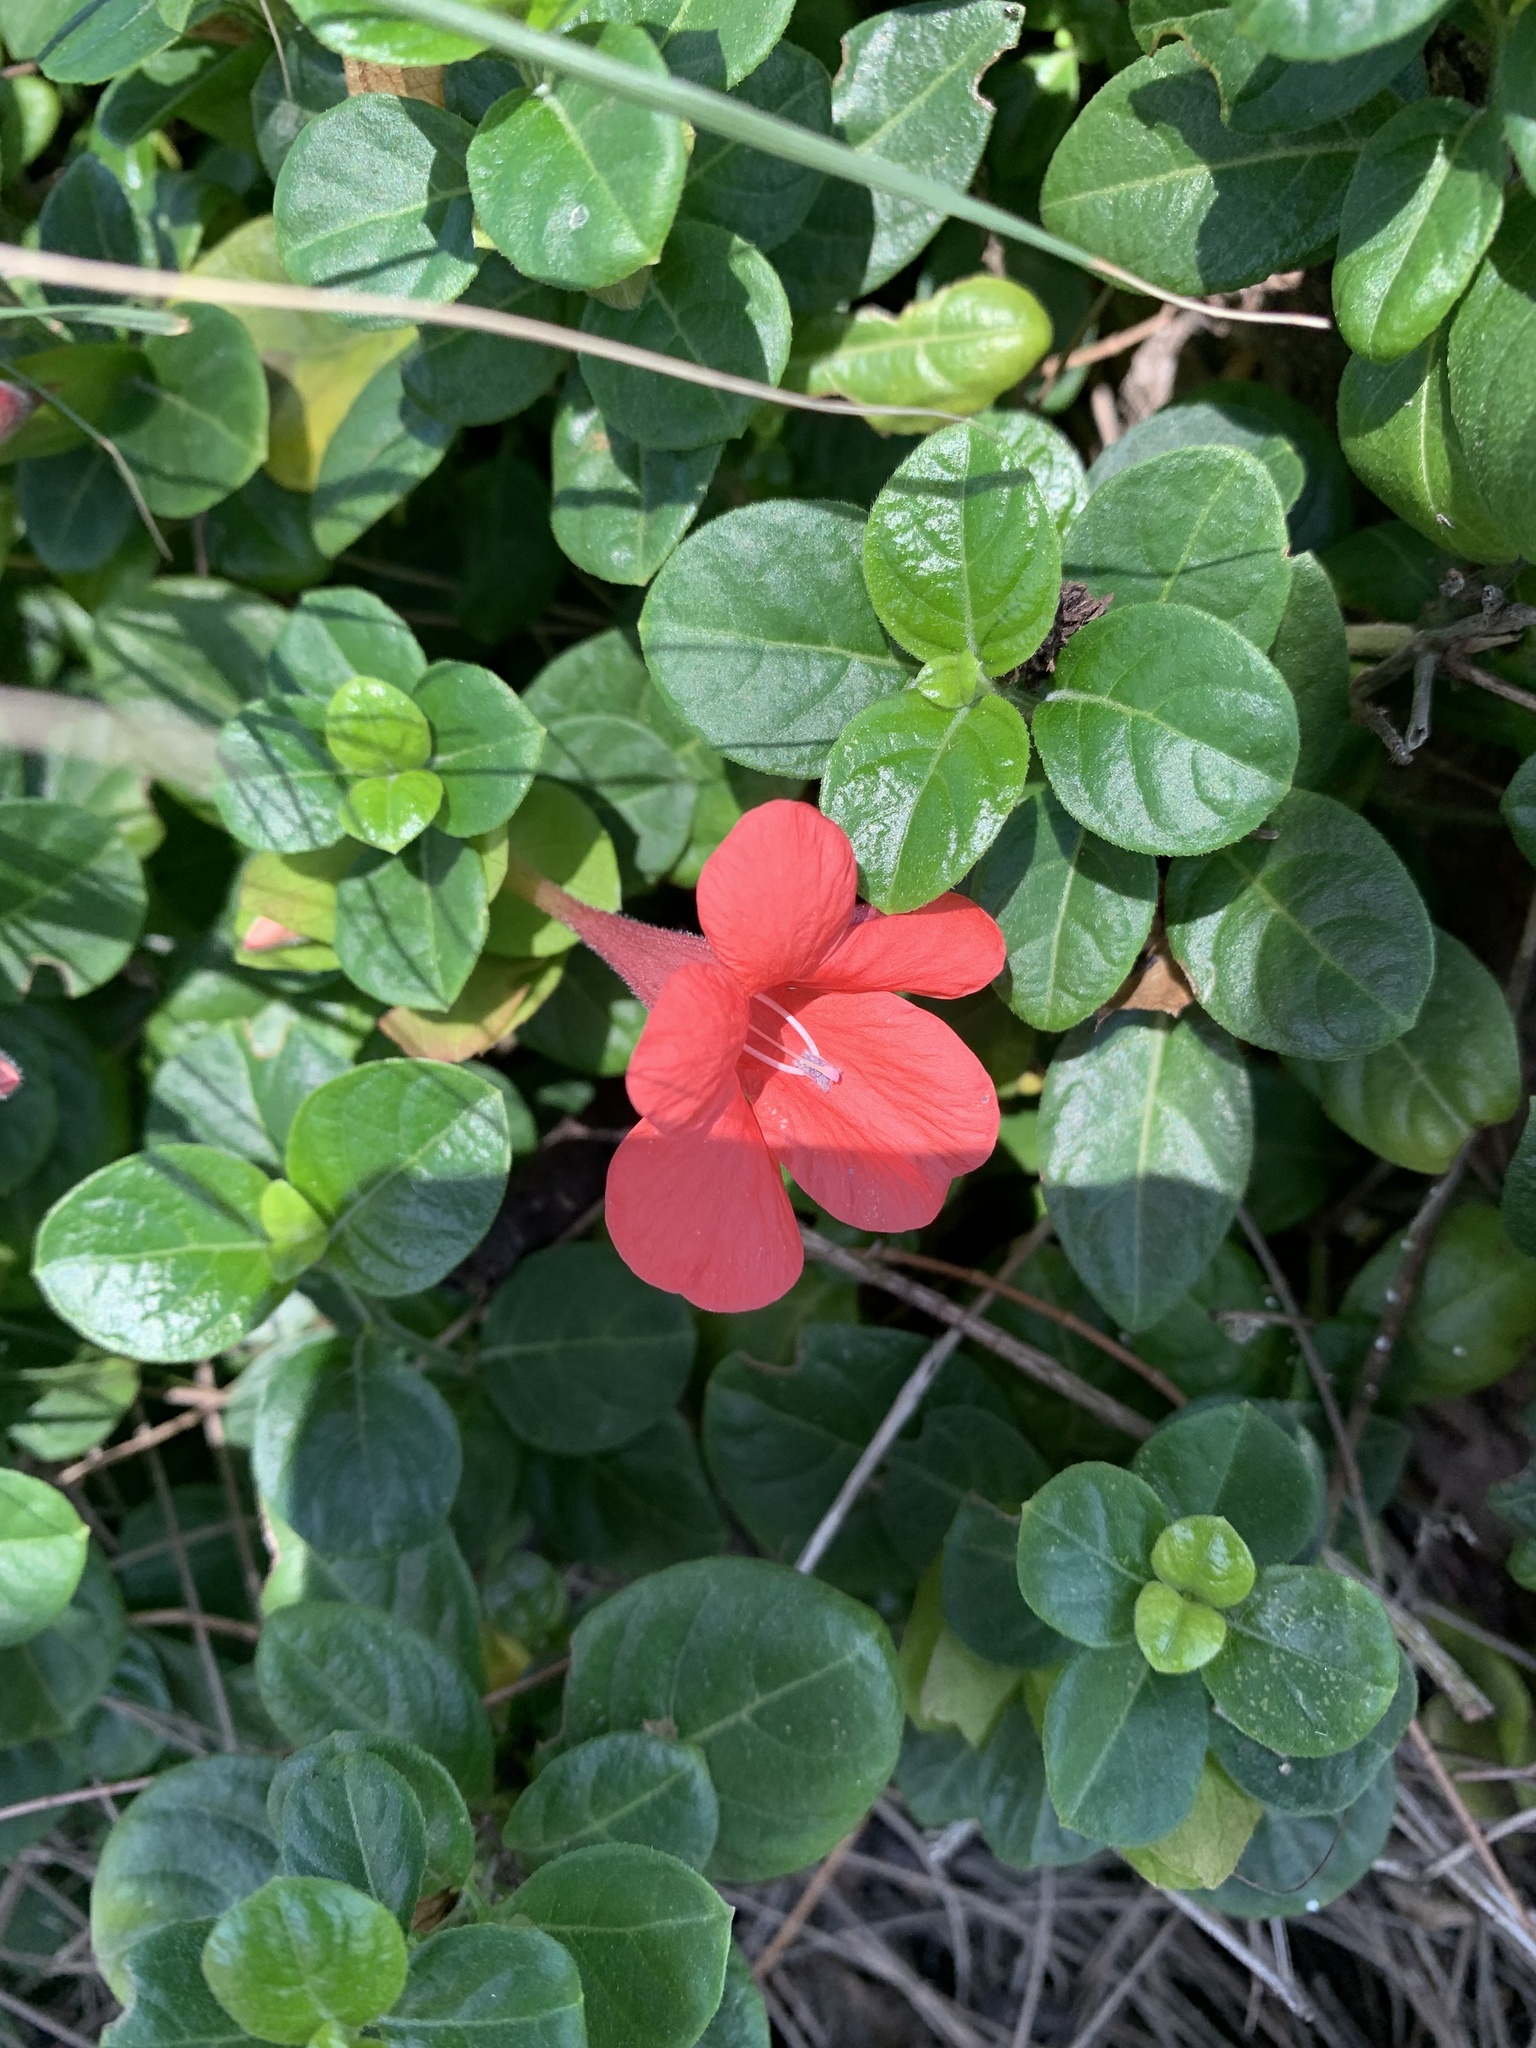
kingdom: Plantae
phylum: Tracheophyta
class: Magnoliopsida
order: Lamiales
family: Acanthaceae
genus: Barleria
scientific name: Barleria repens
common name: Pink-ruellia
